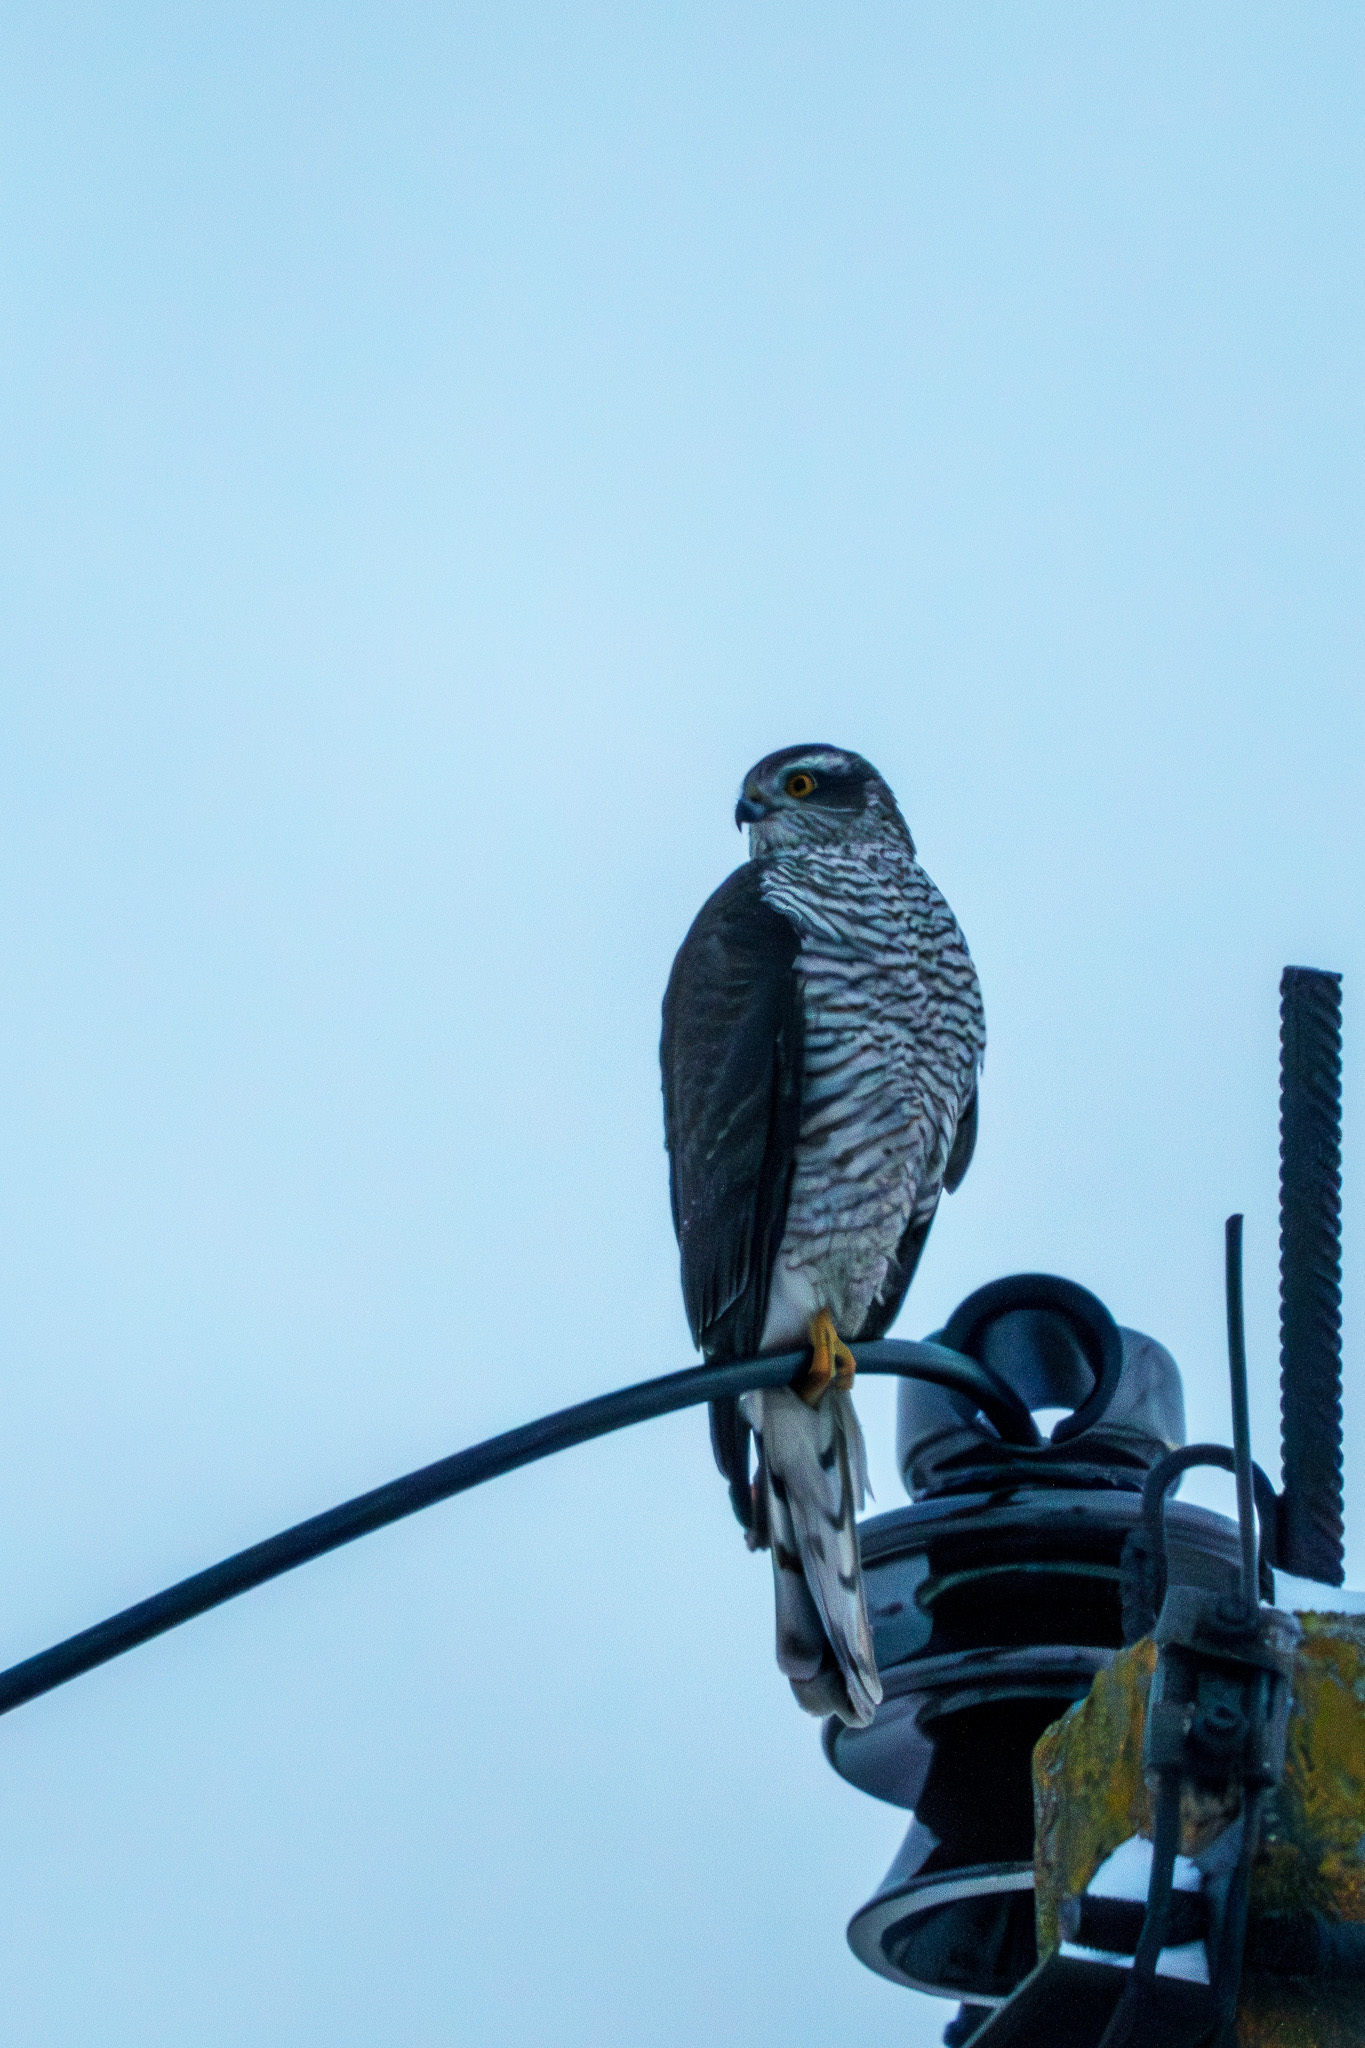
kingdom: Animalia
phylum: Chordata
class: Aves
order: Accipitriformes
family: Accipitridae
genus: Accipiter
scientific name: Accipiter nisus
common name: Eurasian sparrowhawk
